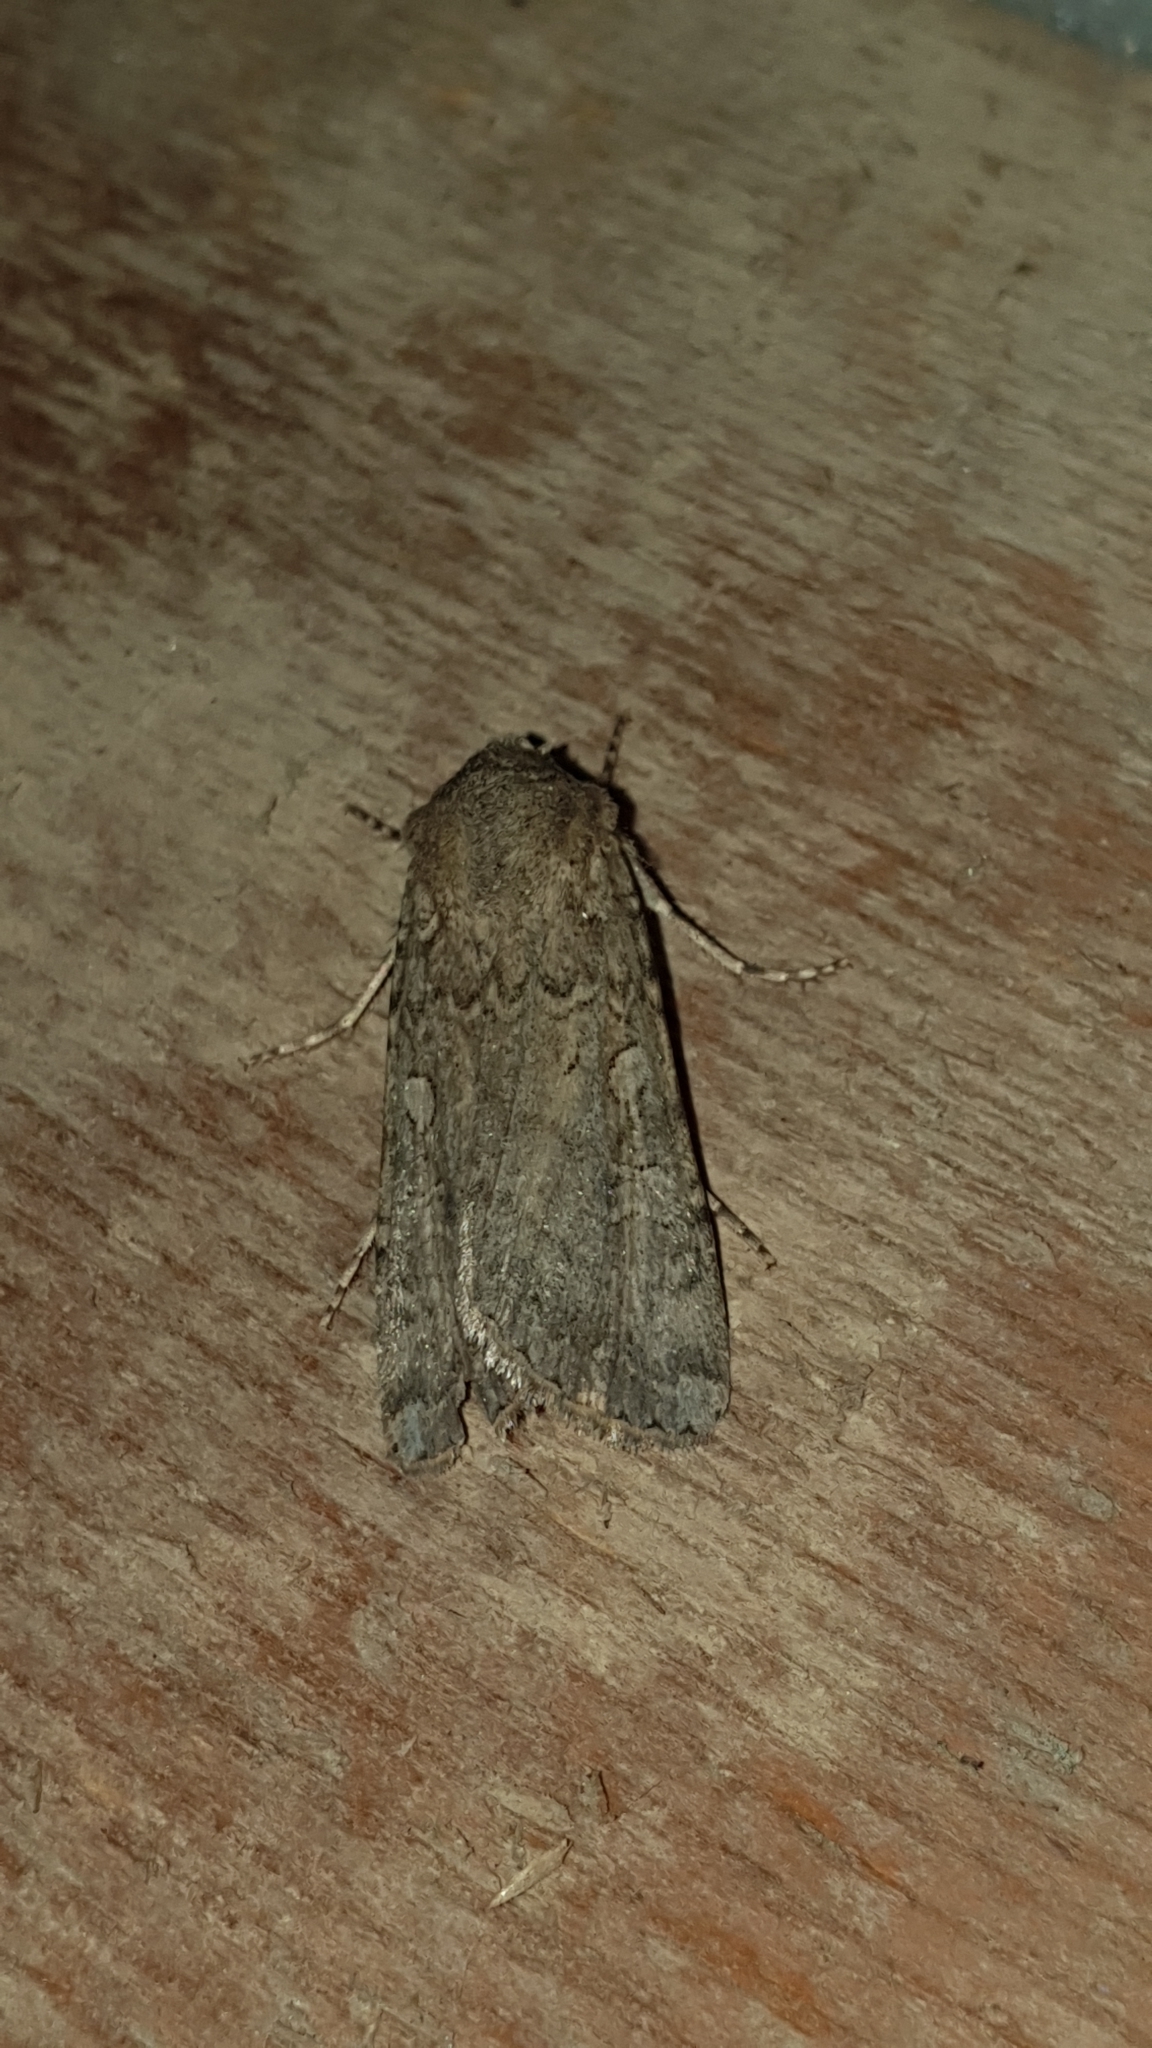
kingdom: Animalia
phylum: Arthropoda
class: Insecta
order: Lepidoptera
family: Noctuidae
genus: Euxoa
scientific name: Euxoa conspicua
